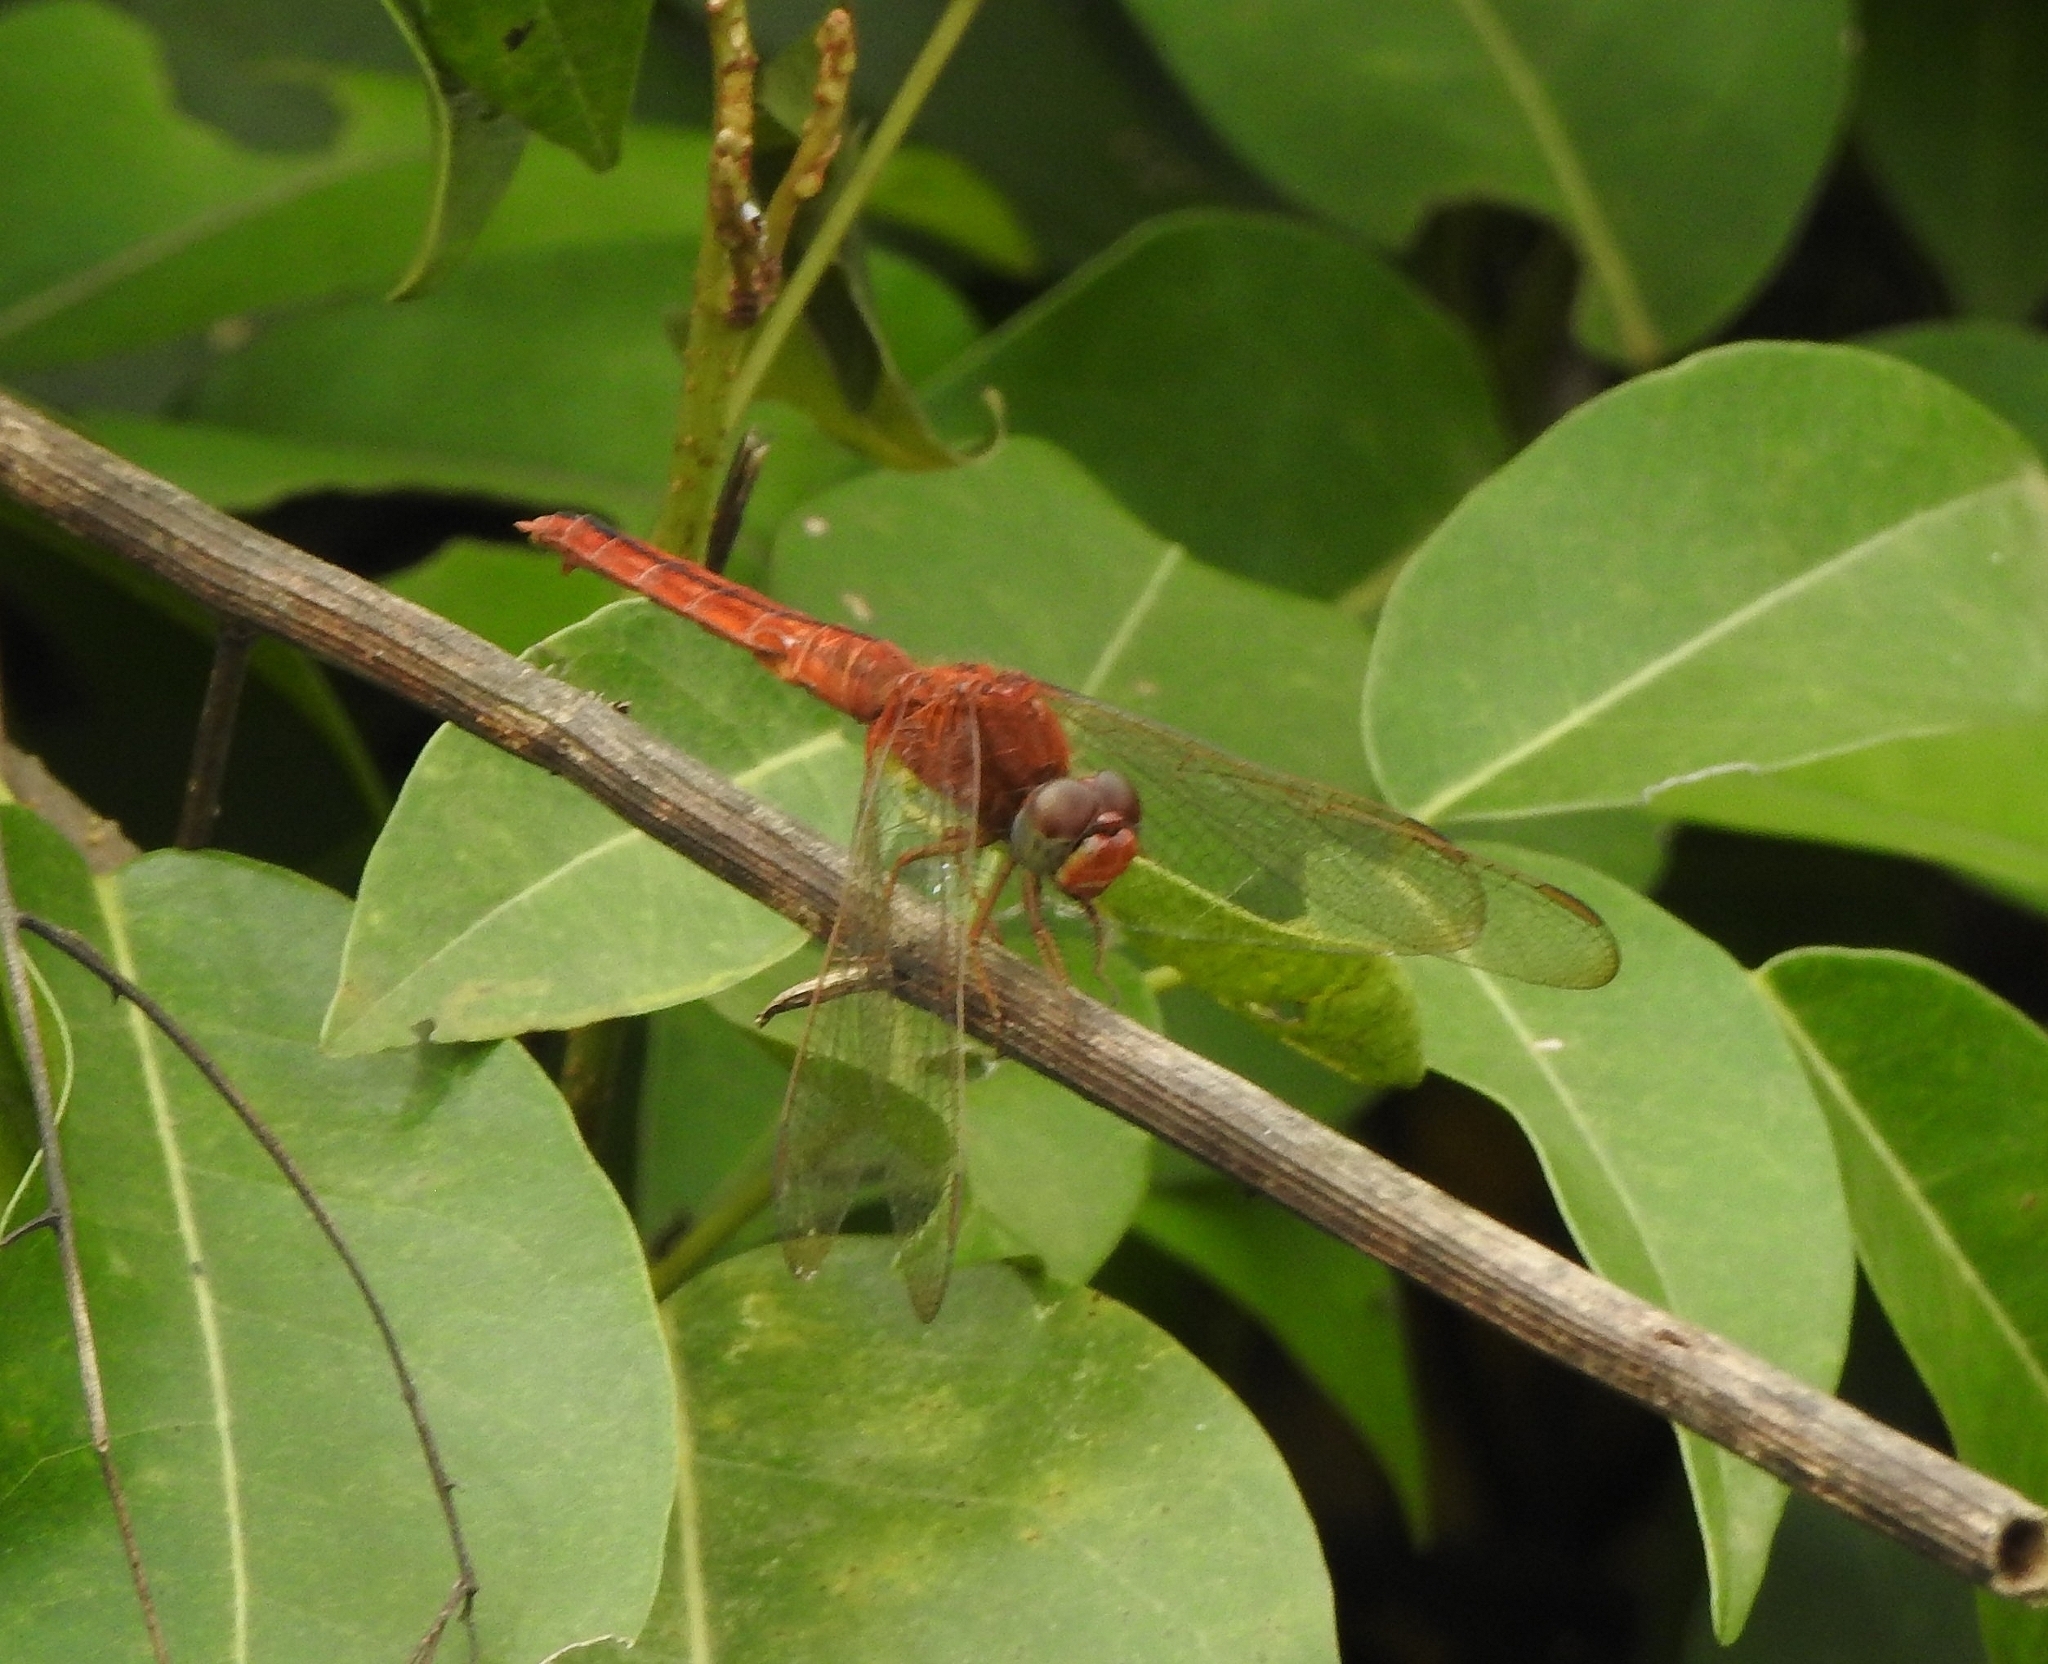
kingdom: Animalia
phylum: Arthropoda
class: Insecta
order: Odonata
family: Libellulidae
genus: Crocothemis
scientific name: Crocothemis servilia
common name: Scarlet skimmer
